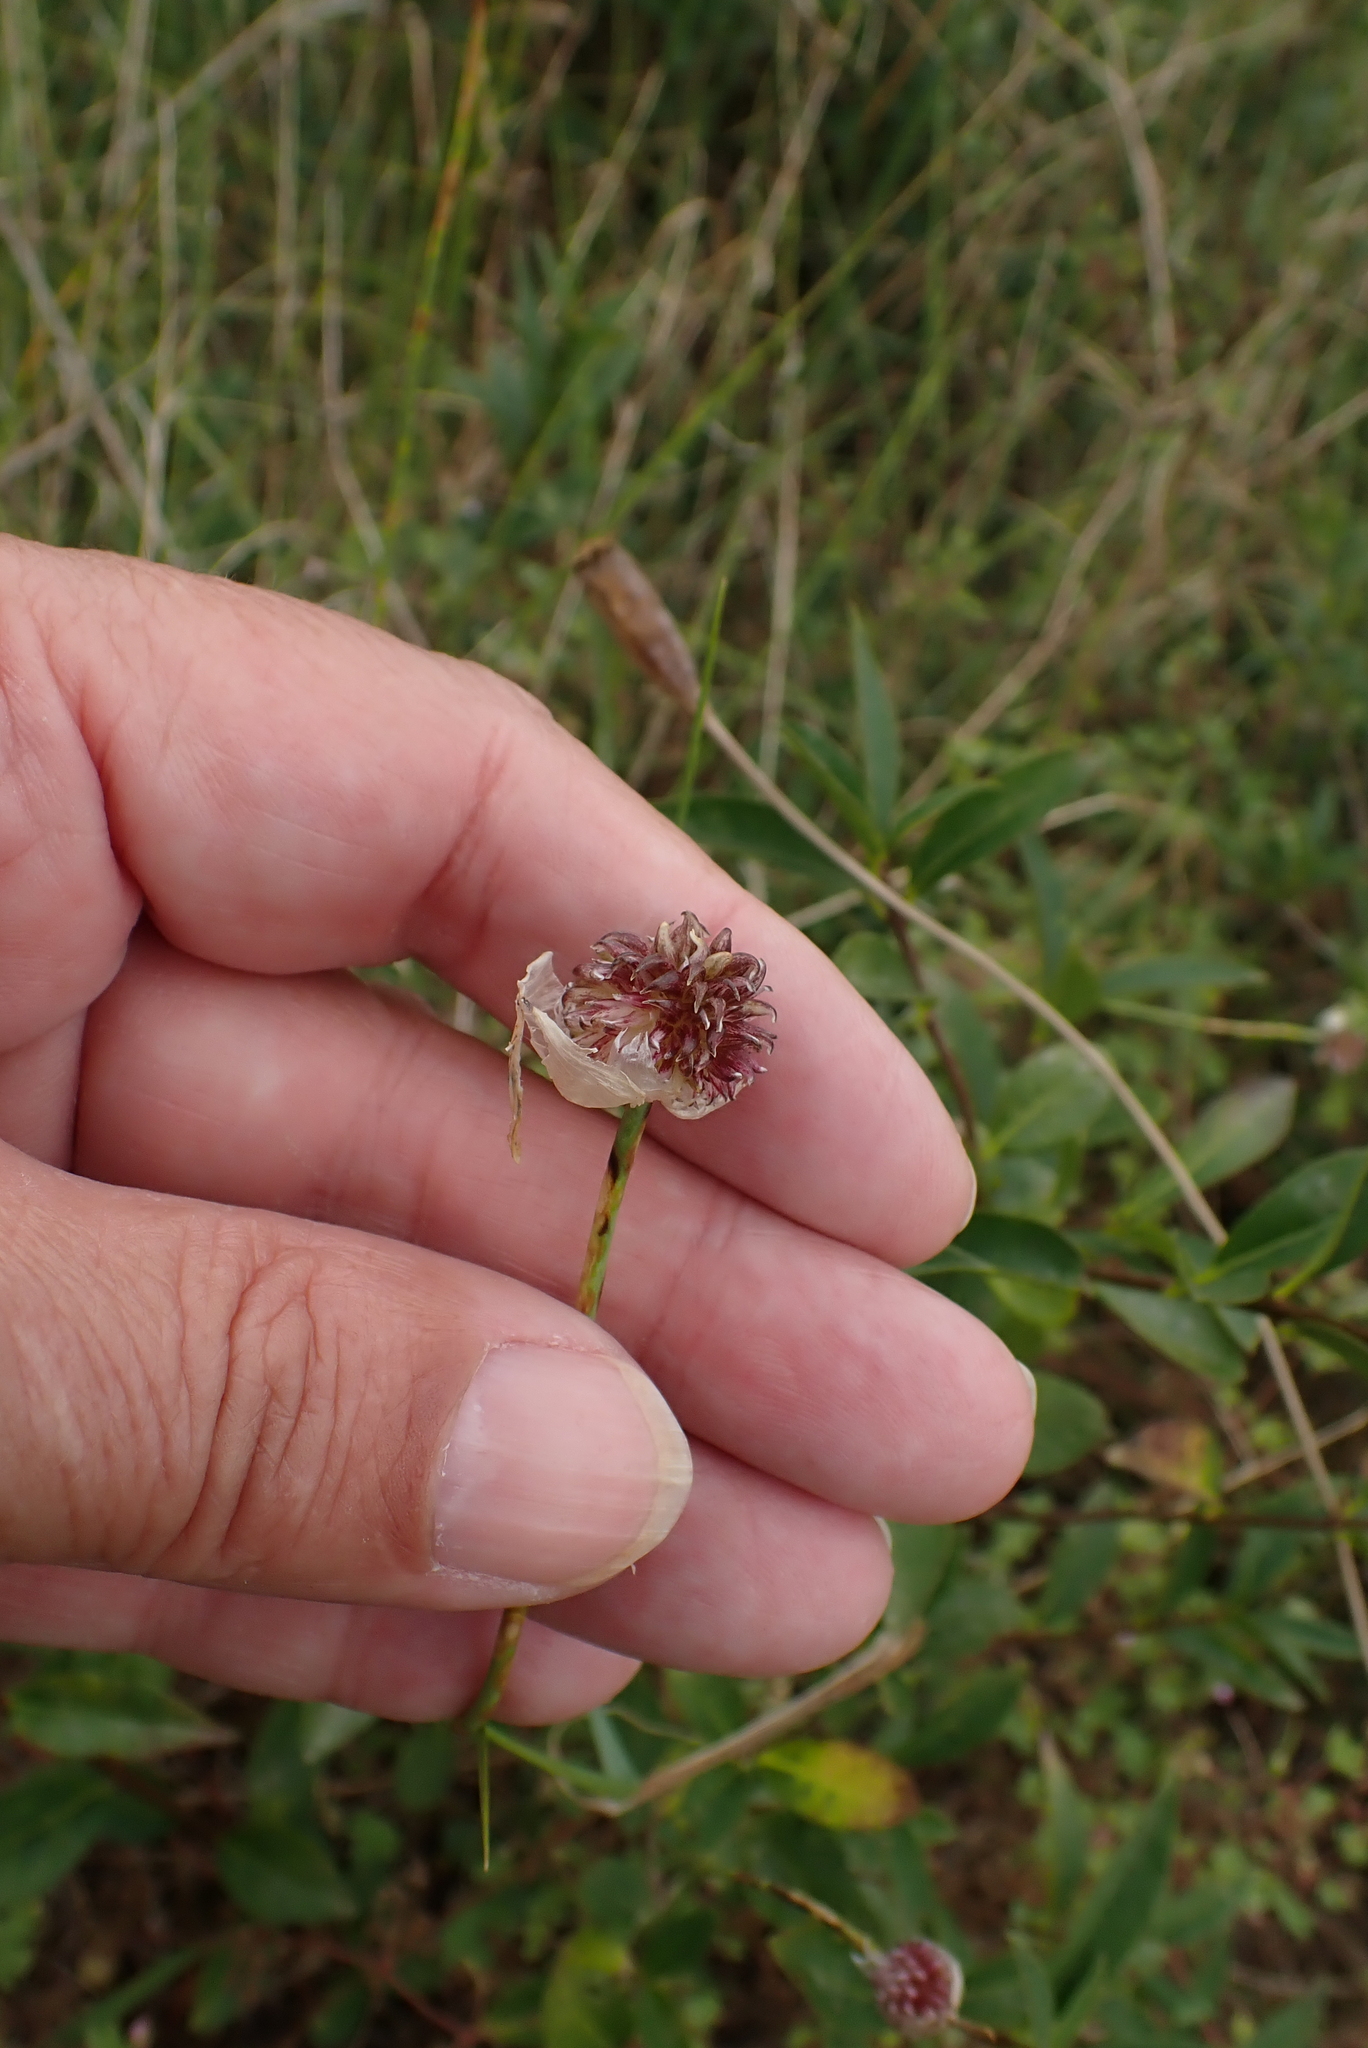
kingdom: Plantae
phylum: Tracheophyta
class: Liliopsida
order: Asparagales
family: Amaryllidaceae
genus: Allium
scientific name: Allium vineale
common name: Crow garlic
